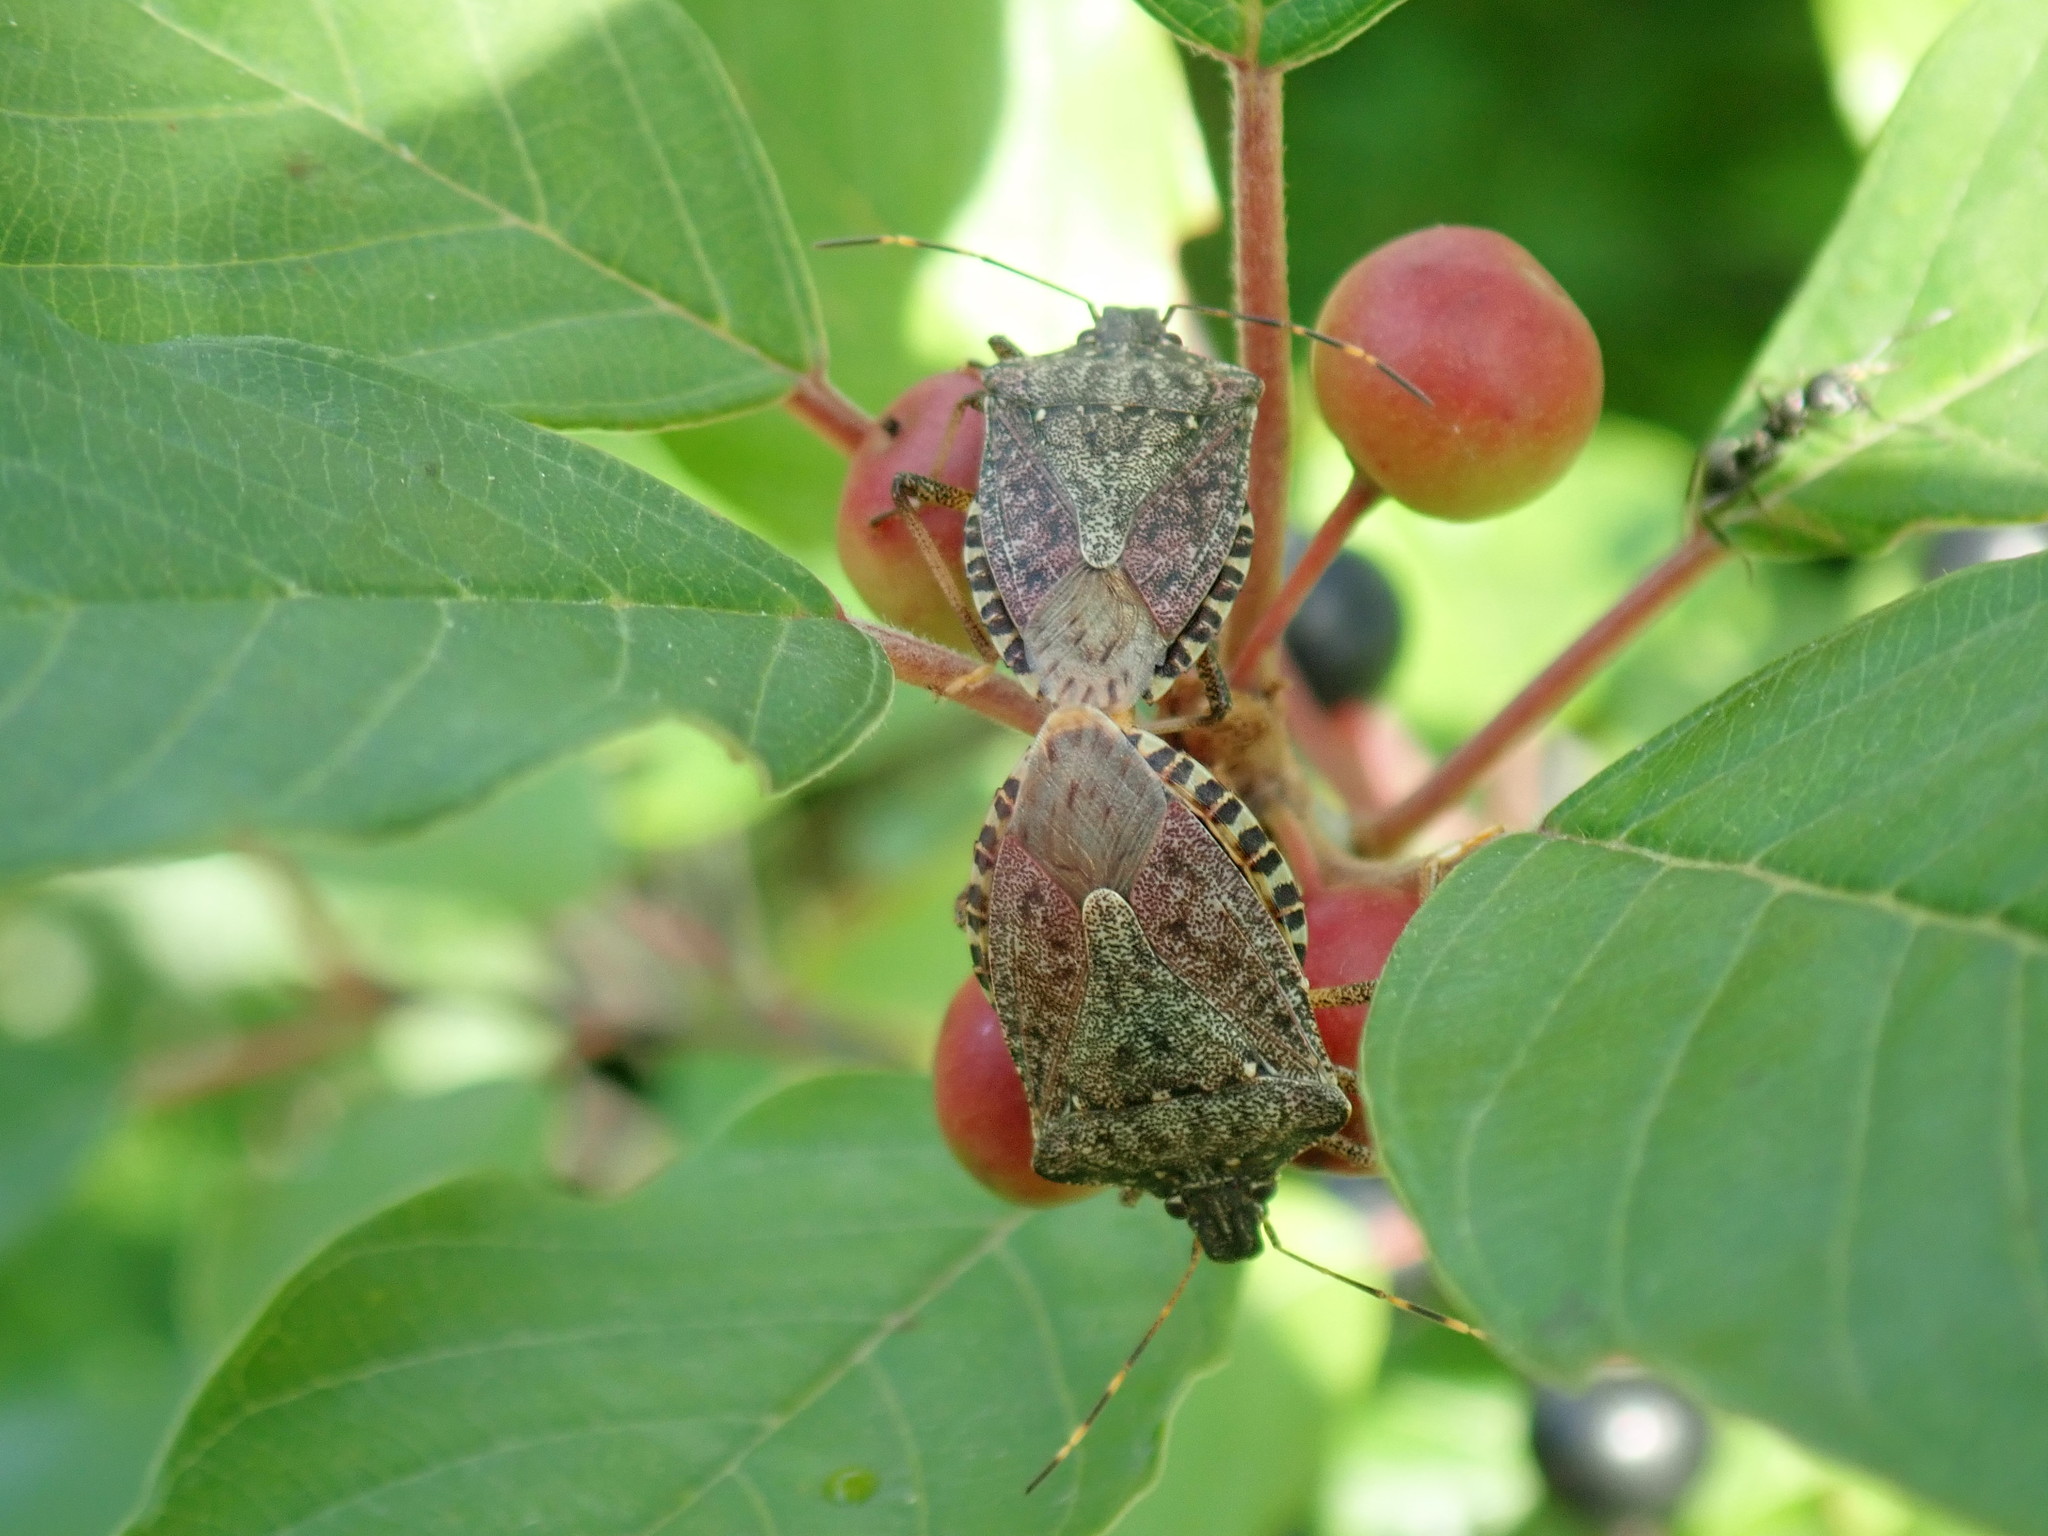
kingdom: Animalia
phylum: Arthropoda
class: Insecta
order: Hemiptera
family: Pentatomidae
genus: Halyomorpha
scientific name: Halyomorpha halys
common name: Brown marmorated stink bug
